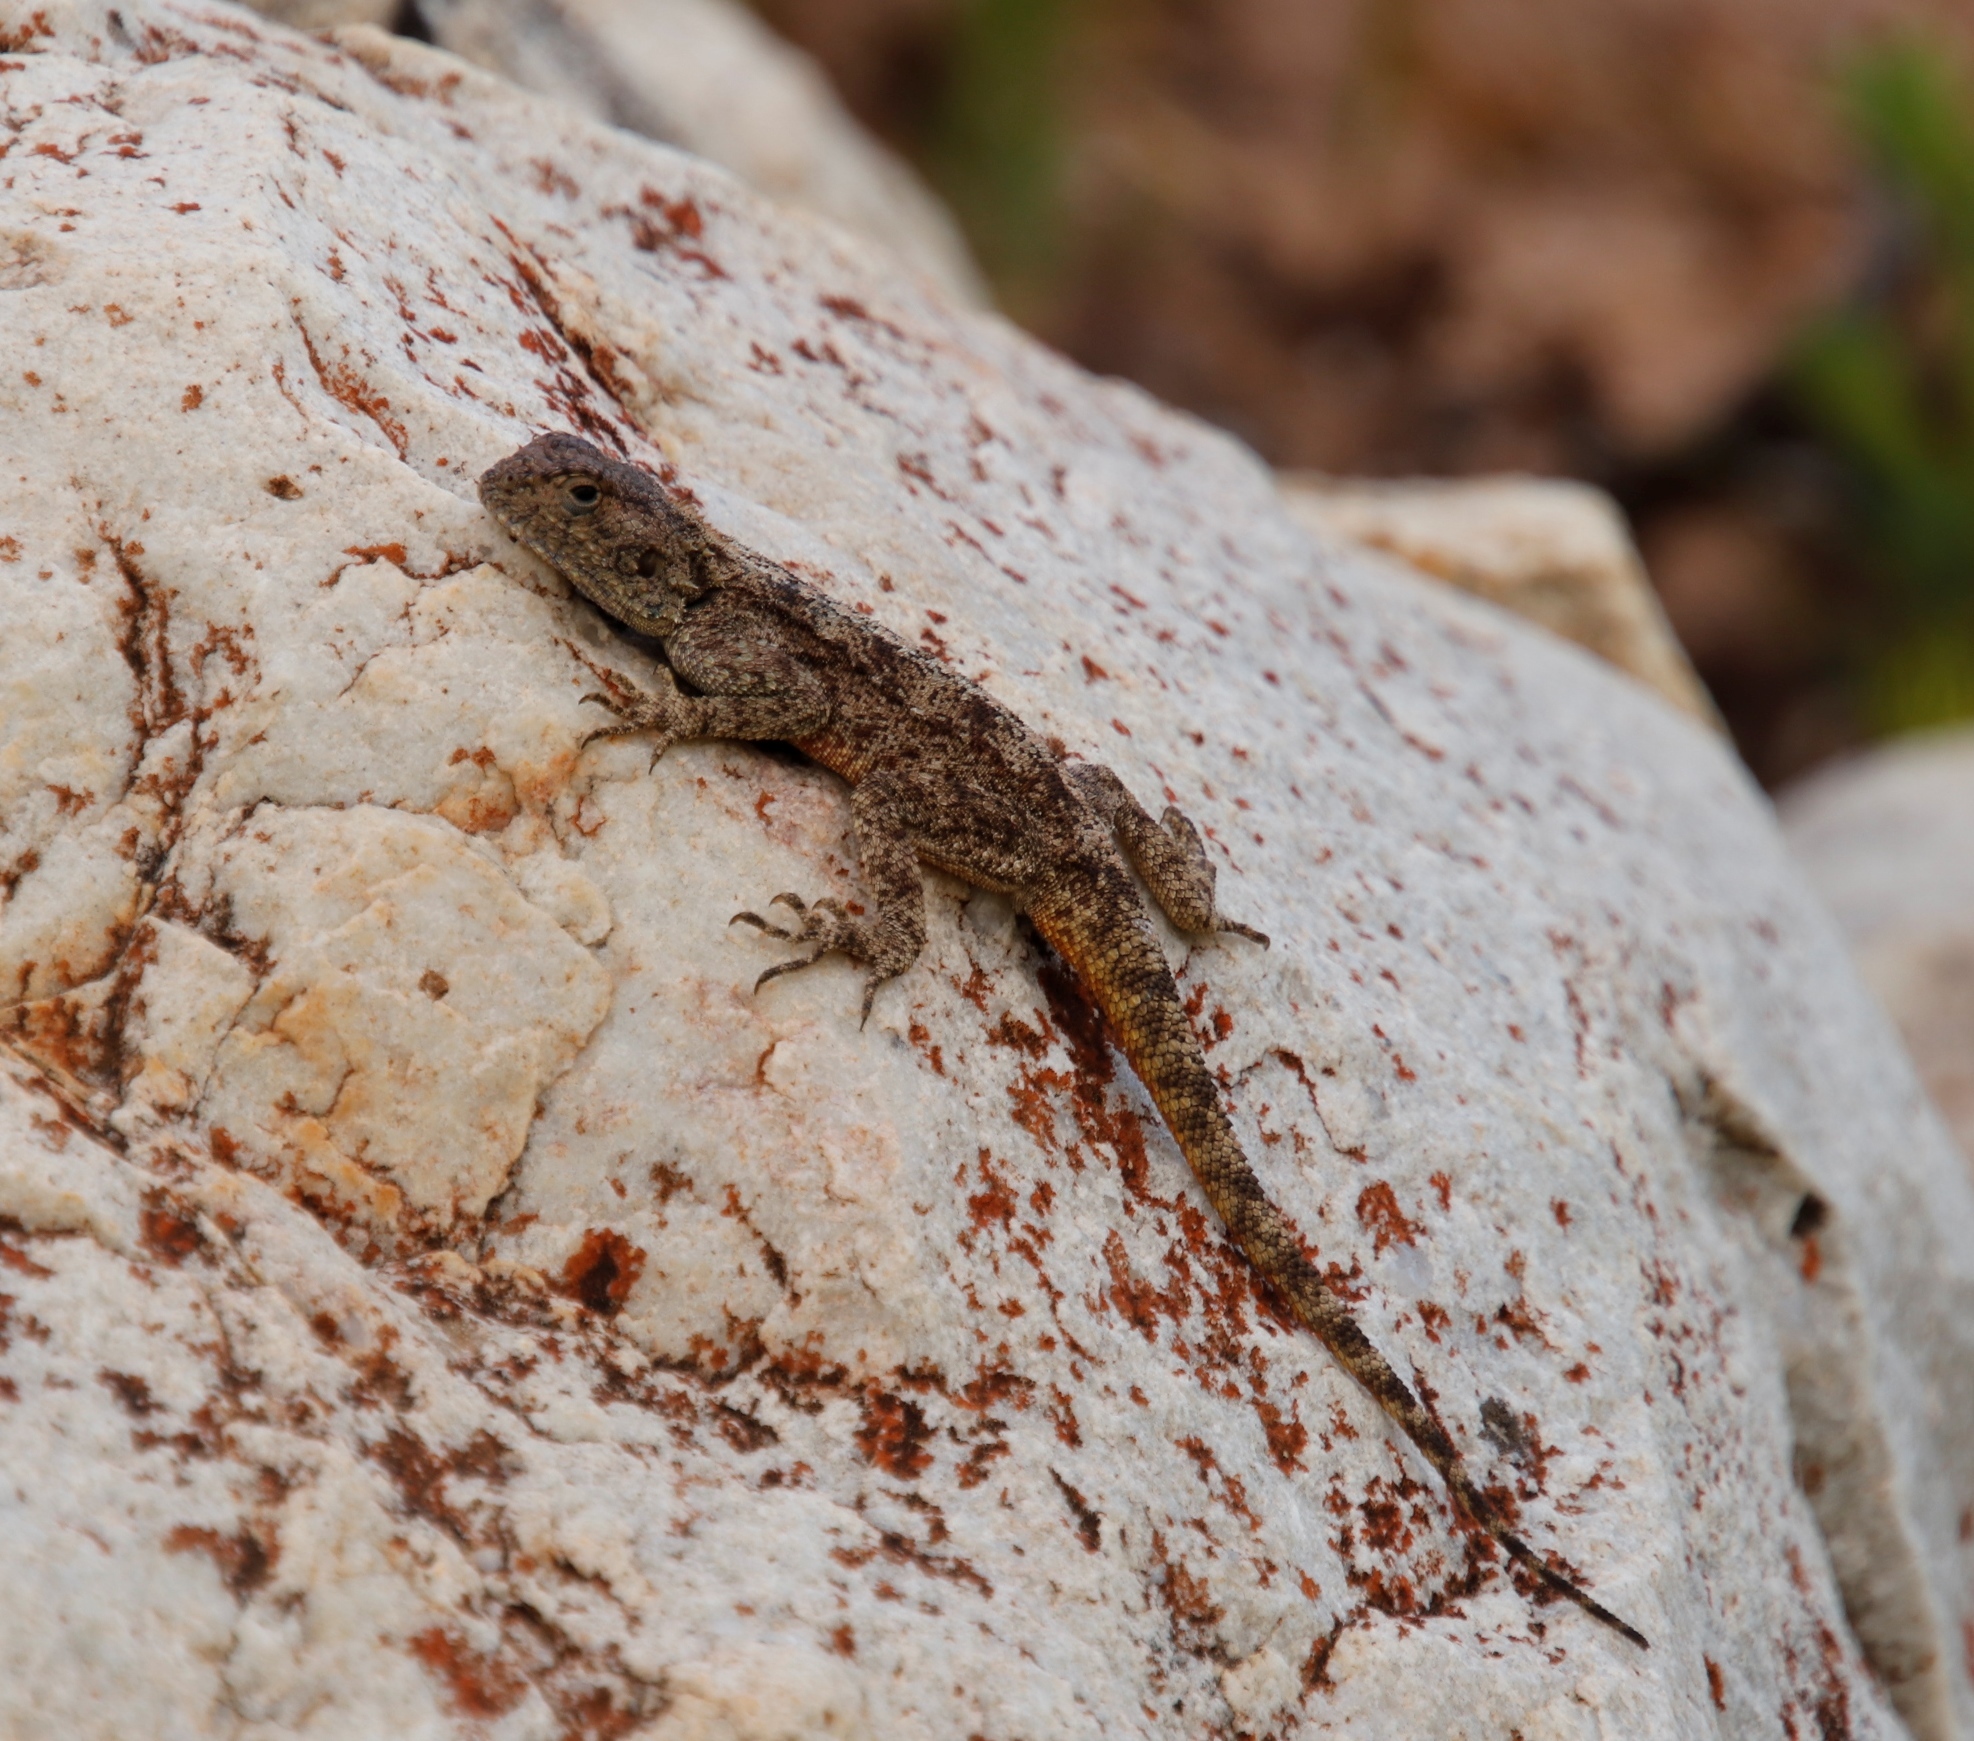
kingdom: Animalia
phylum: Chordata
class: Squamata
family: Agamidae
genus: Agama
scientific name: Agama atra
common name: Southern african rock agama
